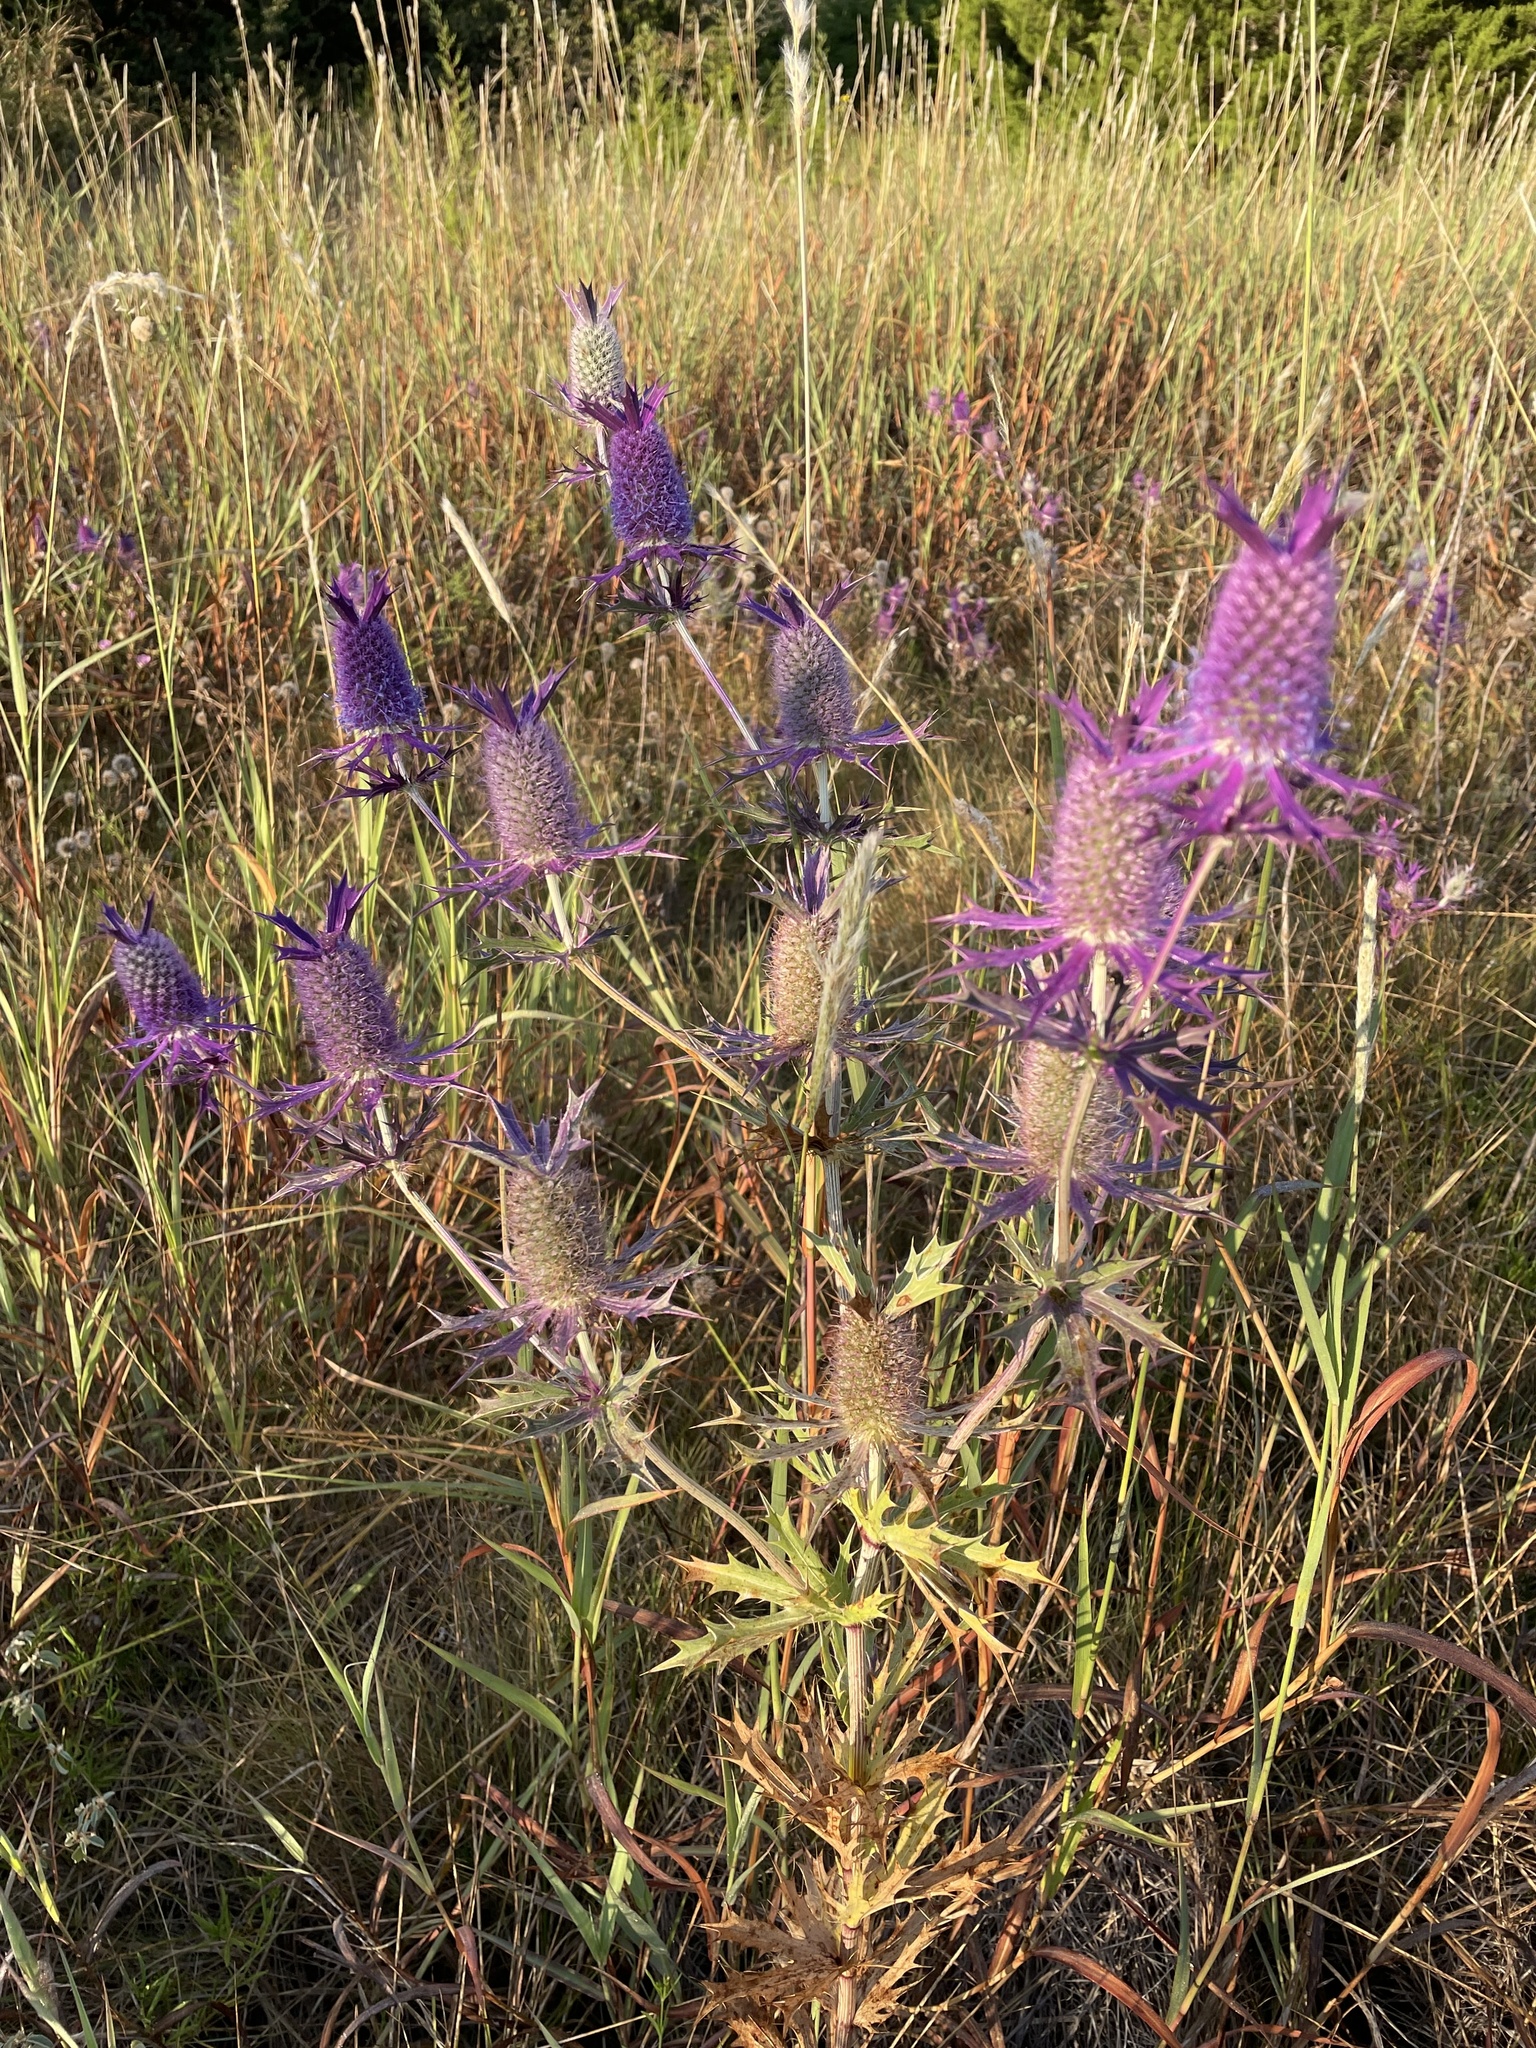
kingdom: Plantae
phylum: Tracheophyta
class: Magnoliopsida
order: Apiales
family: Apiaceae
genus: Eryngium
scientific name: Eryngium leavenworthii
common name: Leavenworth's eryngo
